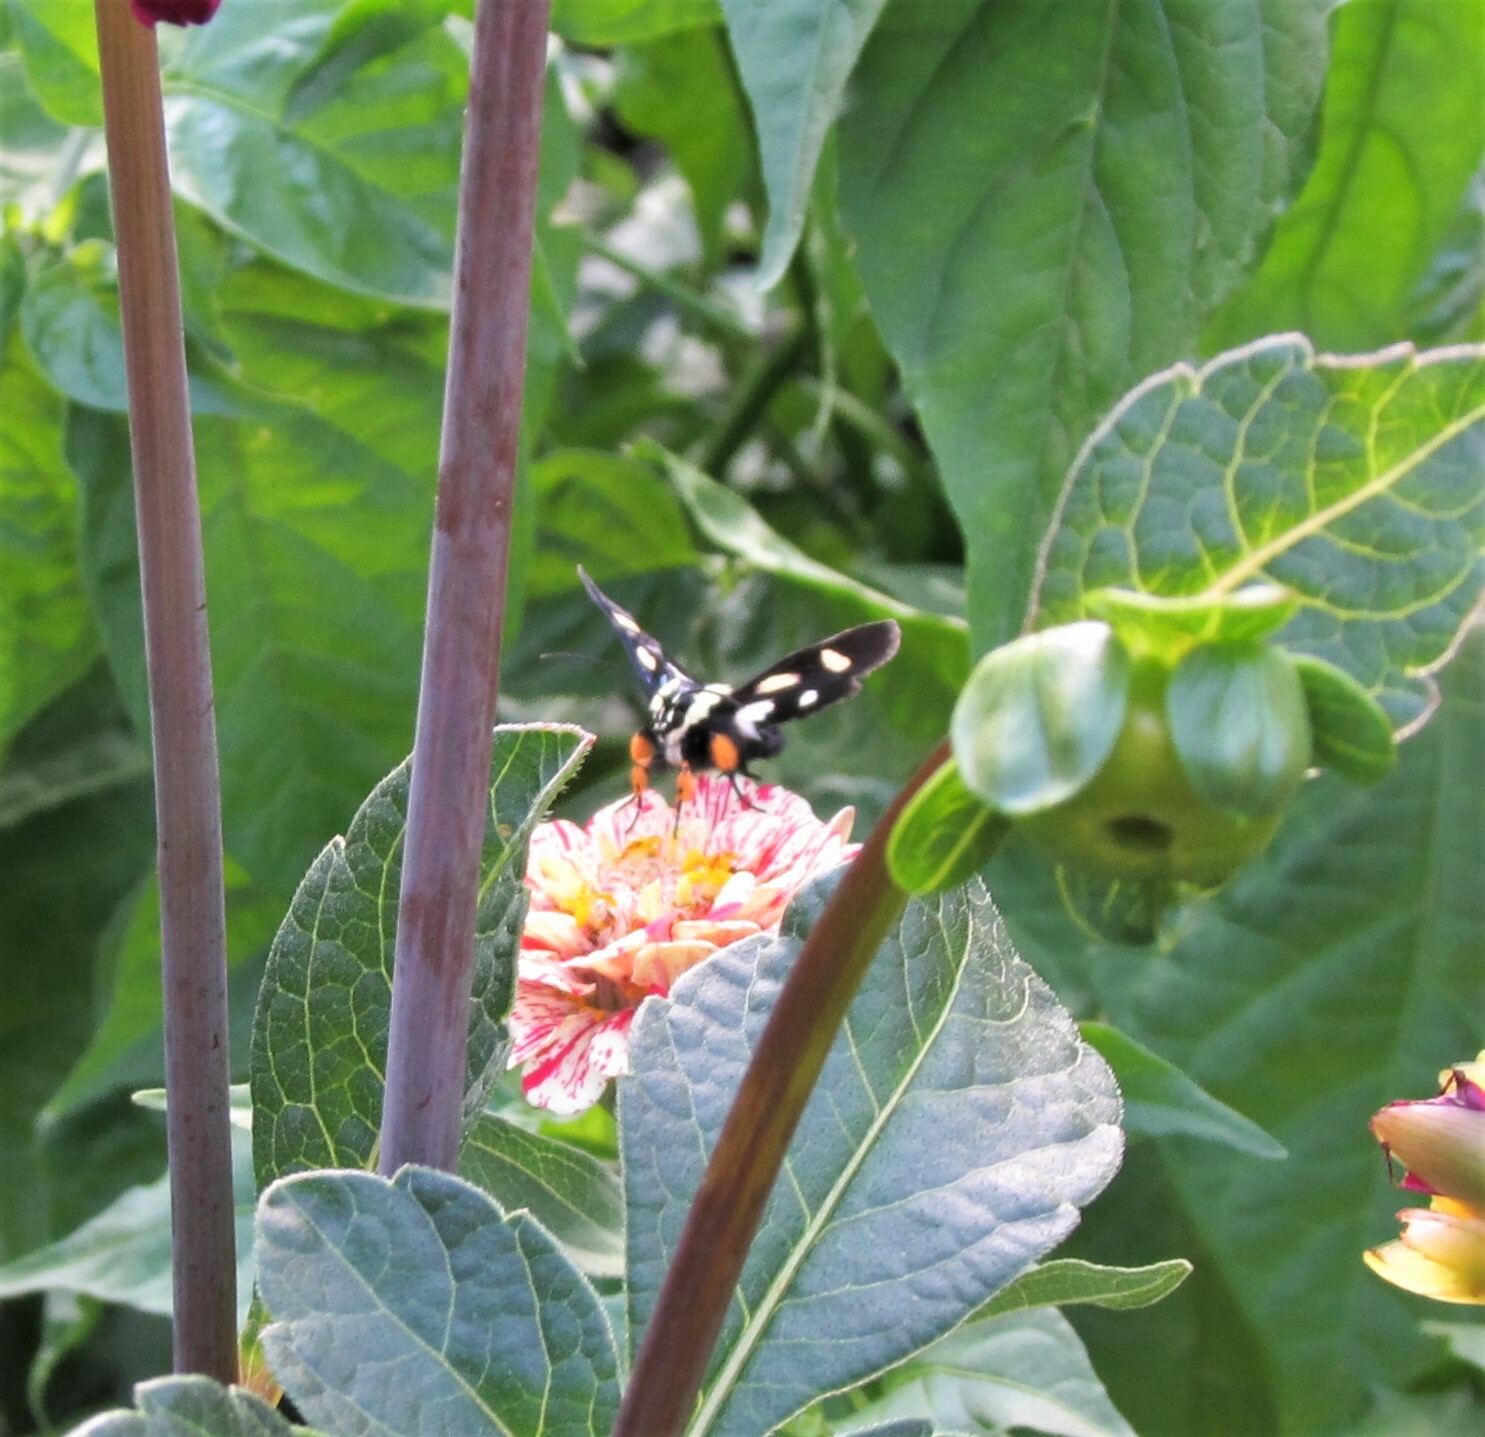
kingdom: Animalia
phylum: Arthropoda
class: Insecta
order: Lepidoptera
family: Noctuidae
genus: Alypia
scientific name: Alypia octomaculata
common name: Eight-spotted forester
